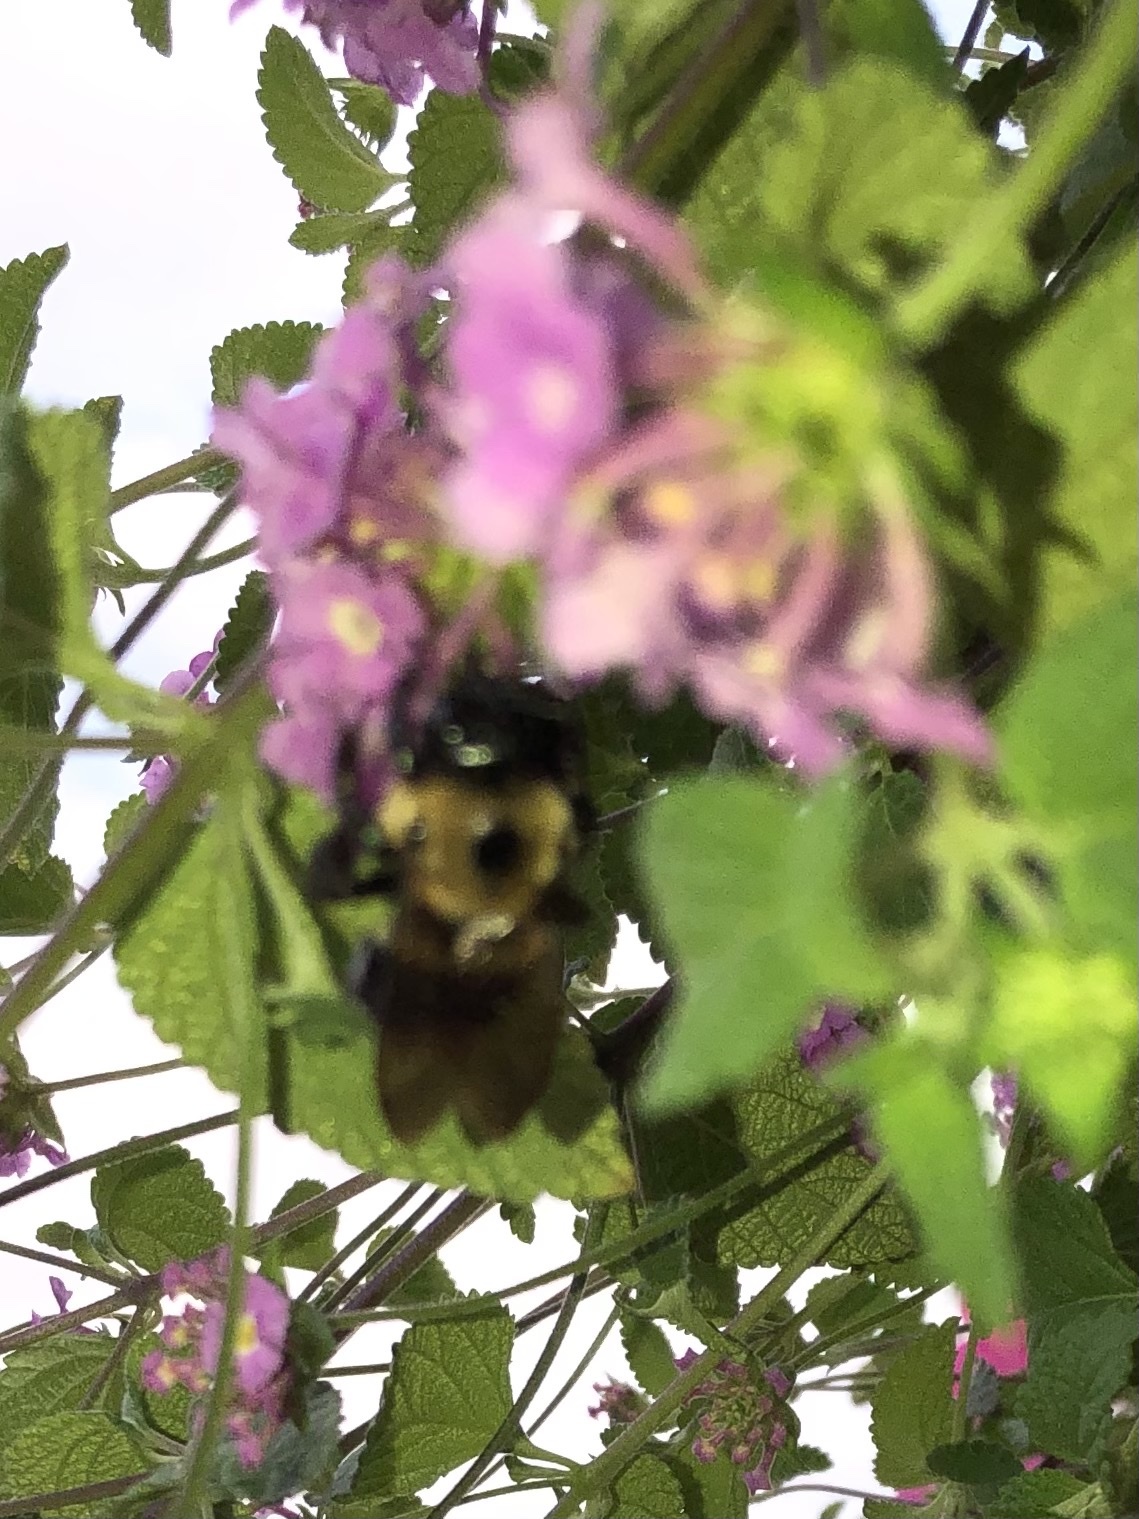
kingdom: Animalia
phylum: Arthropoda
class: Insecta
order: Hymenoptera
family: Apidae
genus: Xylocopa
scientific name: Xylocopa virginica
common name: Carpenter bee
